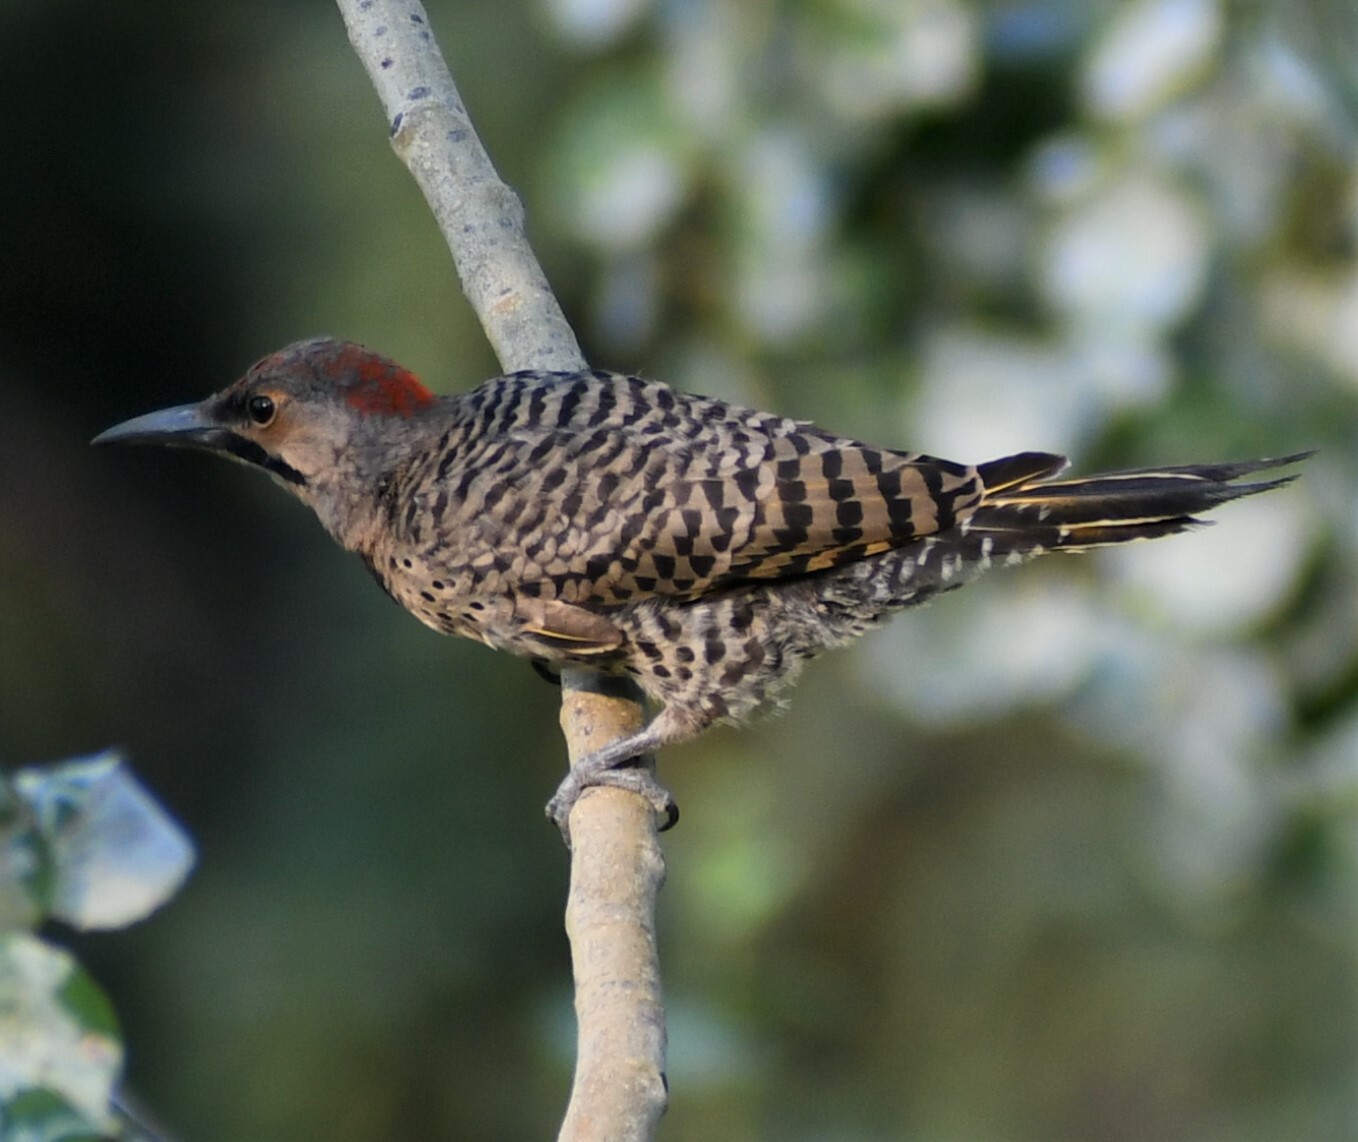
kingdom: Animalia
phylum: Chordata
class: Aves
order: Piciformes
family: Picidae
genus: Colaptes
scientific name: Colaptes auratus
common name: Northern flicker
